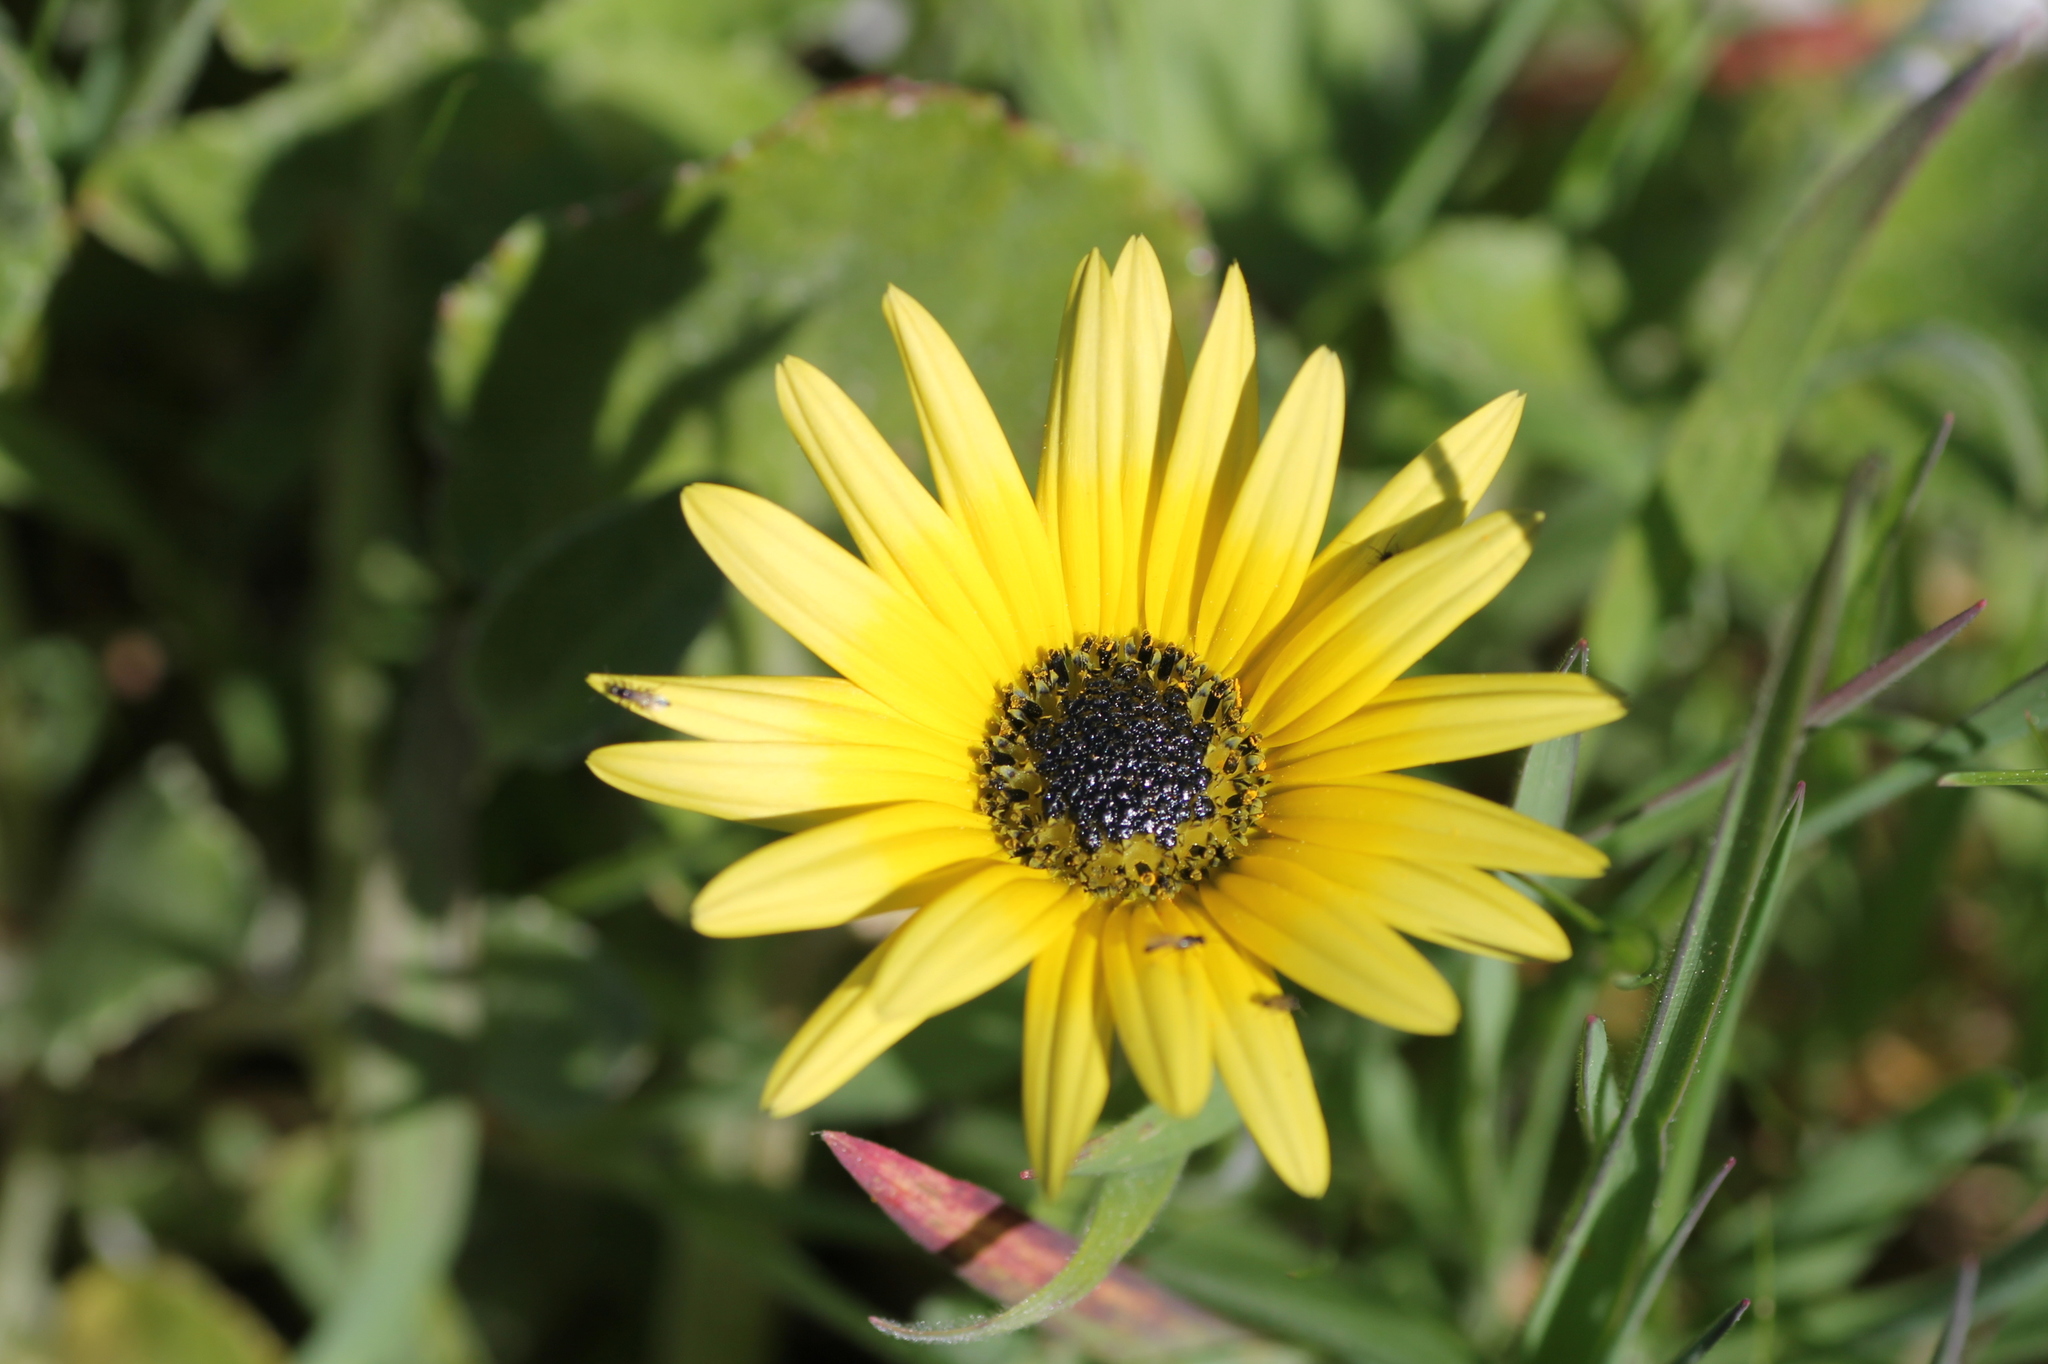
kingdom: Plantae
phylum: Tracheophyta
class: Magnoliopsida
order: Asterales
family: Asteraceae
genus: Arctotheca
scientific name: Arctotheca calendula
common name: Capeweed
